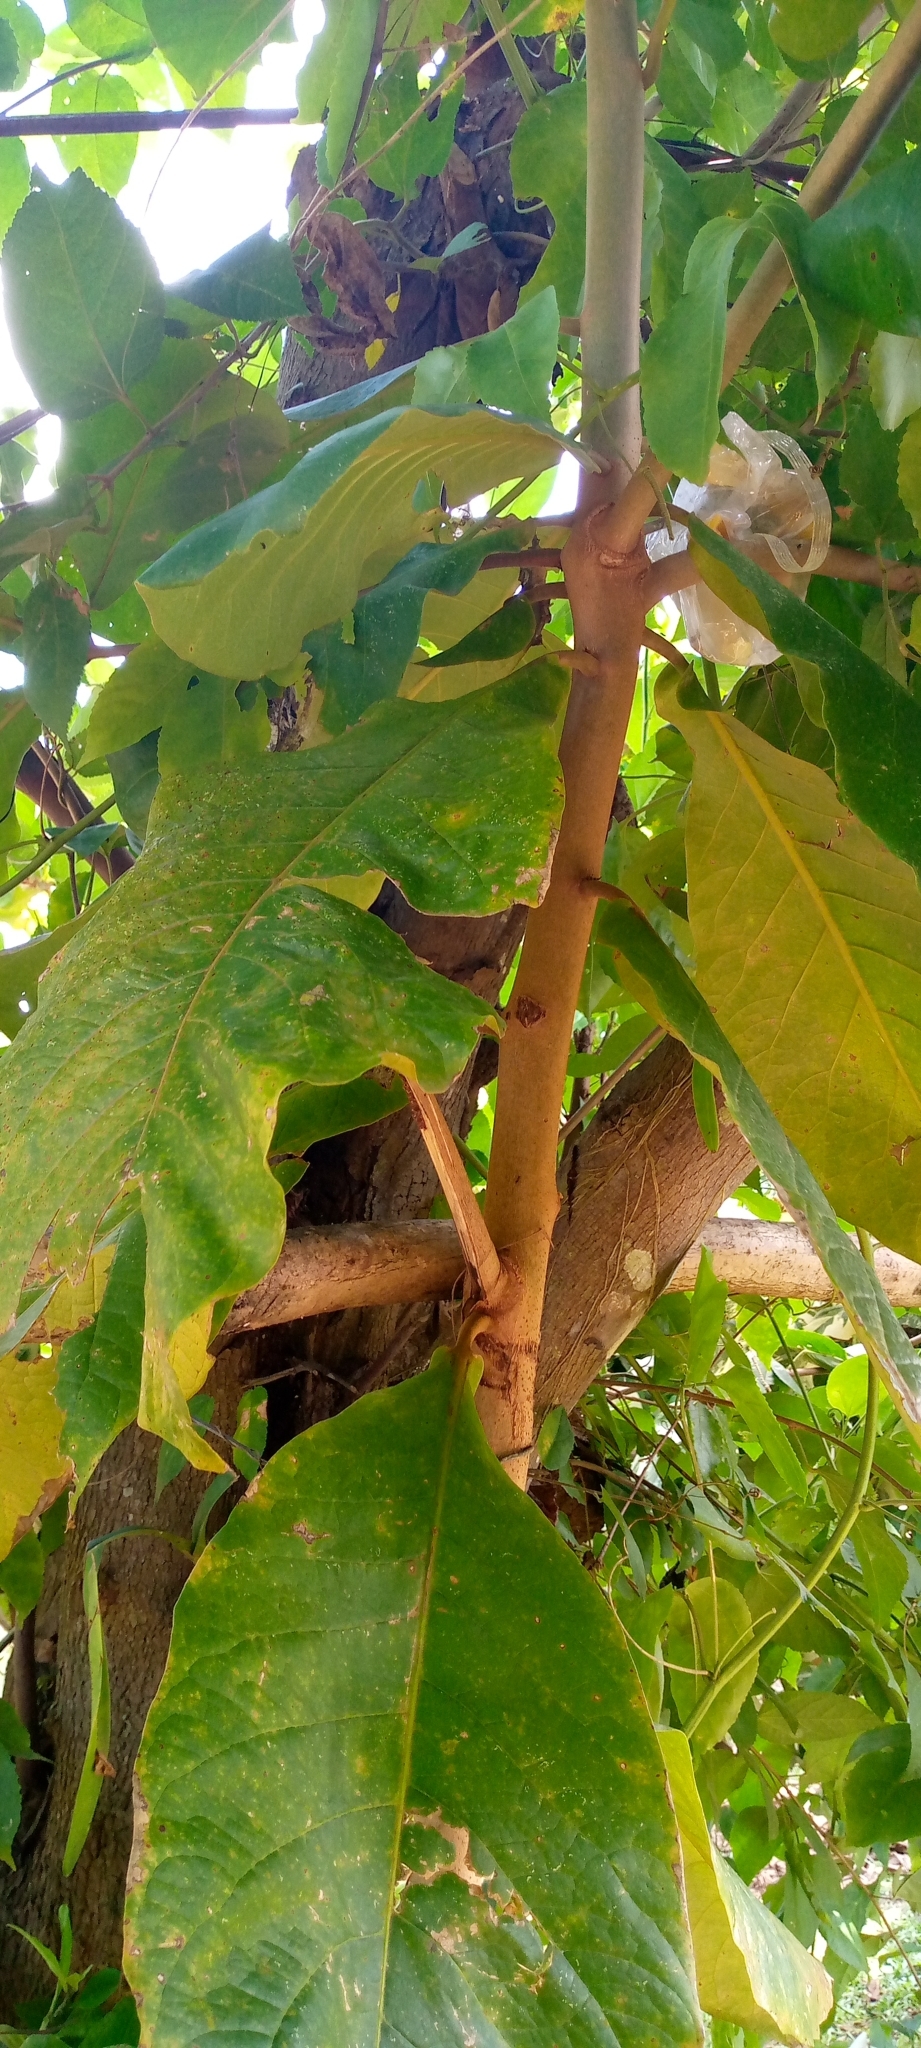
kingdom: Plantae
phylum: Tracheophyta
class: Magnoliopsida
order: Myrtales
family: Combretaceae
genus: Terminalia
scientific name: Terminalia catappa
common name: Tropical almond
